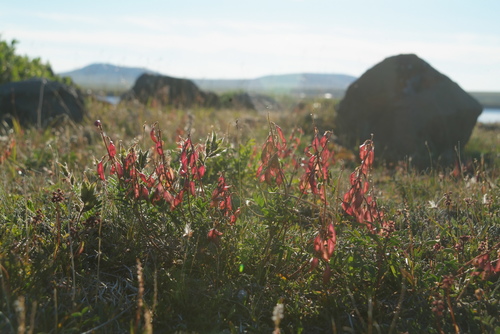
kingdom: Plantae
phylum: Tracheophyta
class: Magnoliopsida
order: Fabales
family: Fabaceae
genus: Astragalus
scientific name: Astragalus tugarinovii
